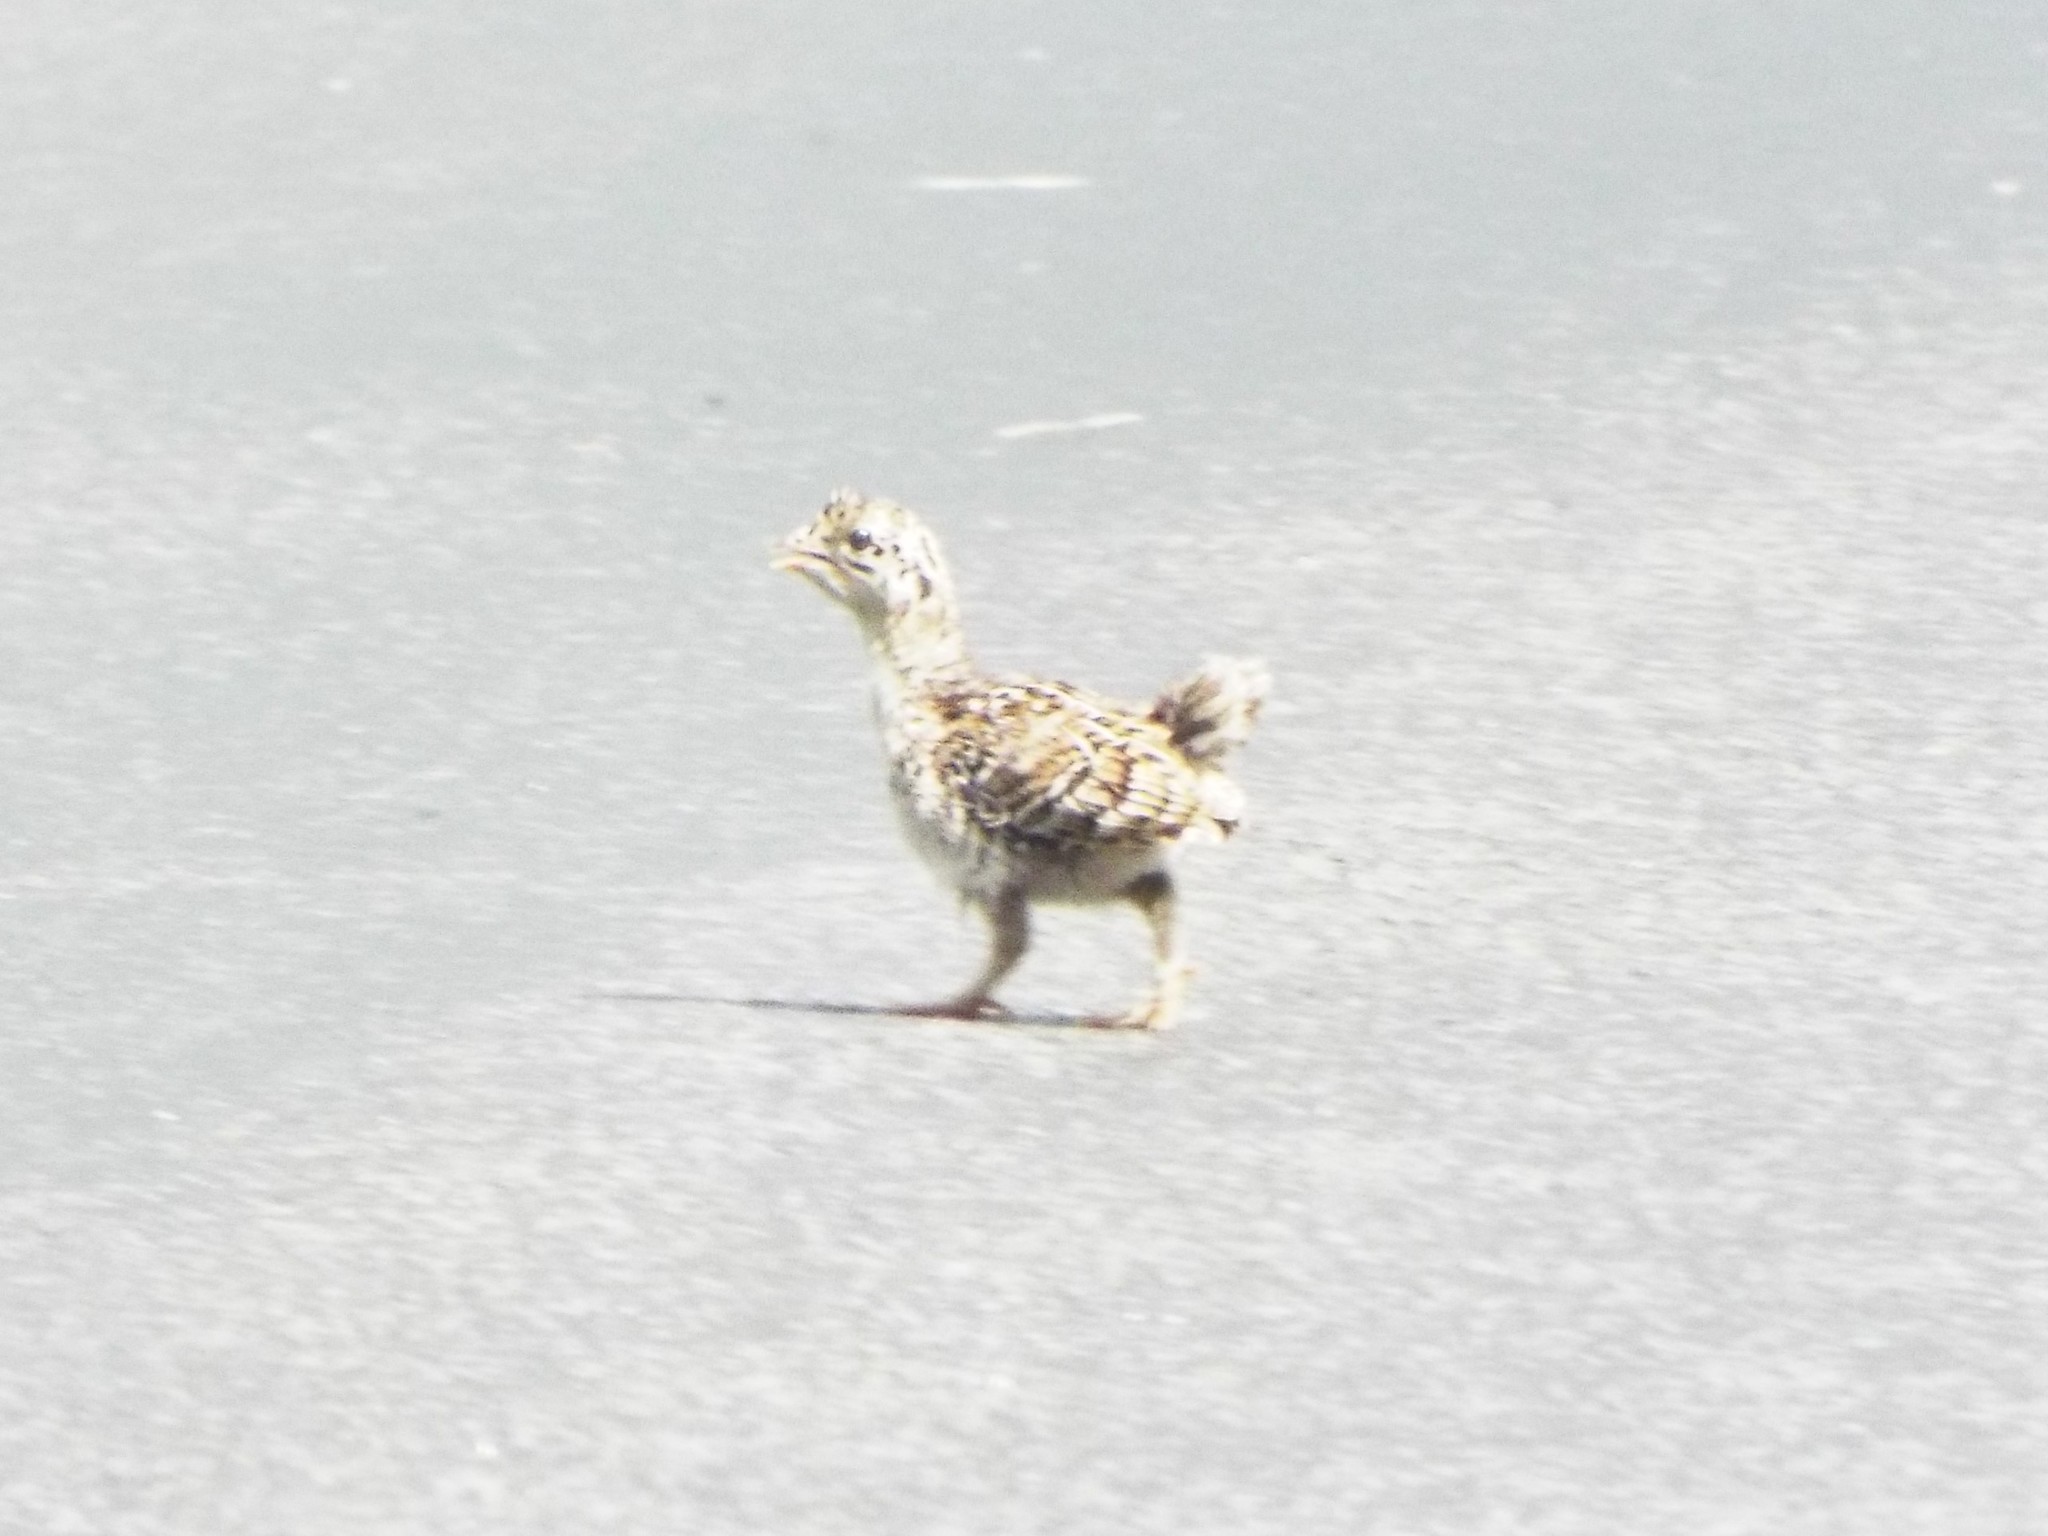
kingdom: Animalia
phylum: Chordata
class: Aves
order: Galliformes
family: Phasianidae
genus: Dendragapus
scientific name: Dendragapus obscurus
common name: Dusky grouse
